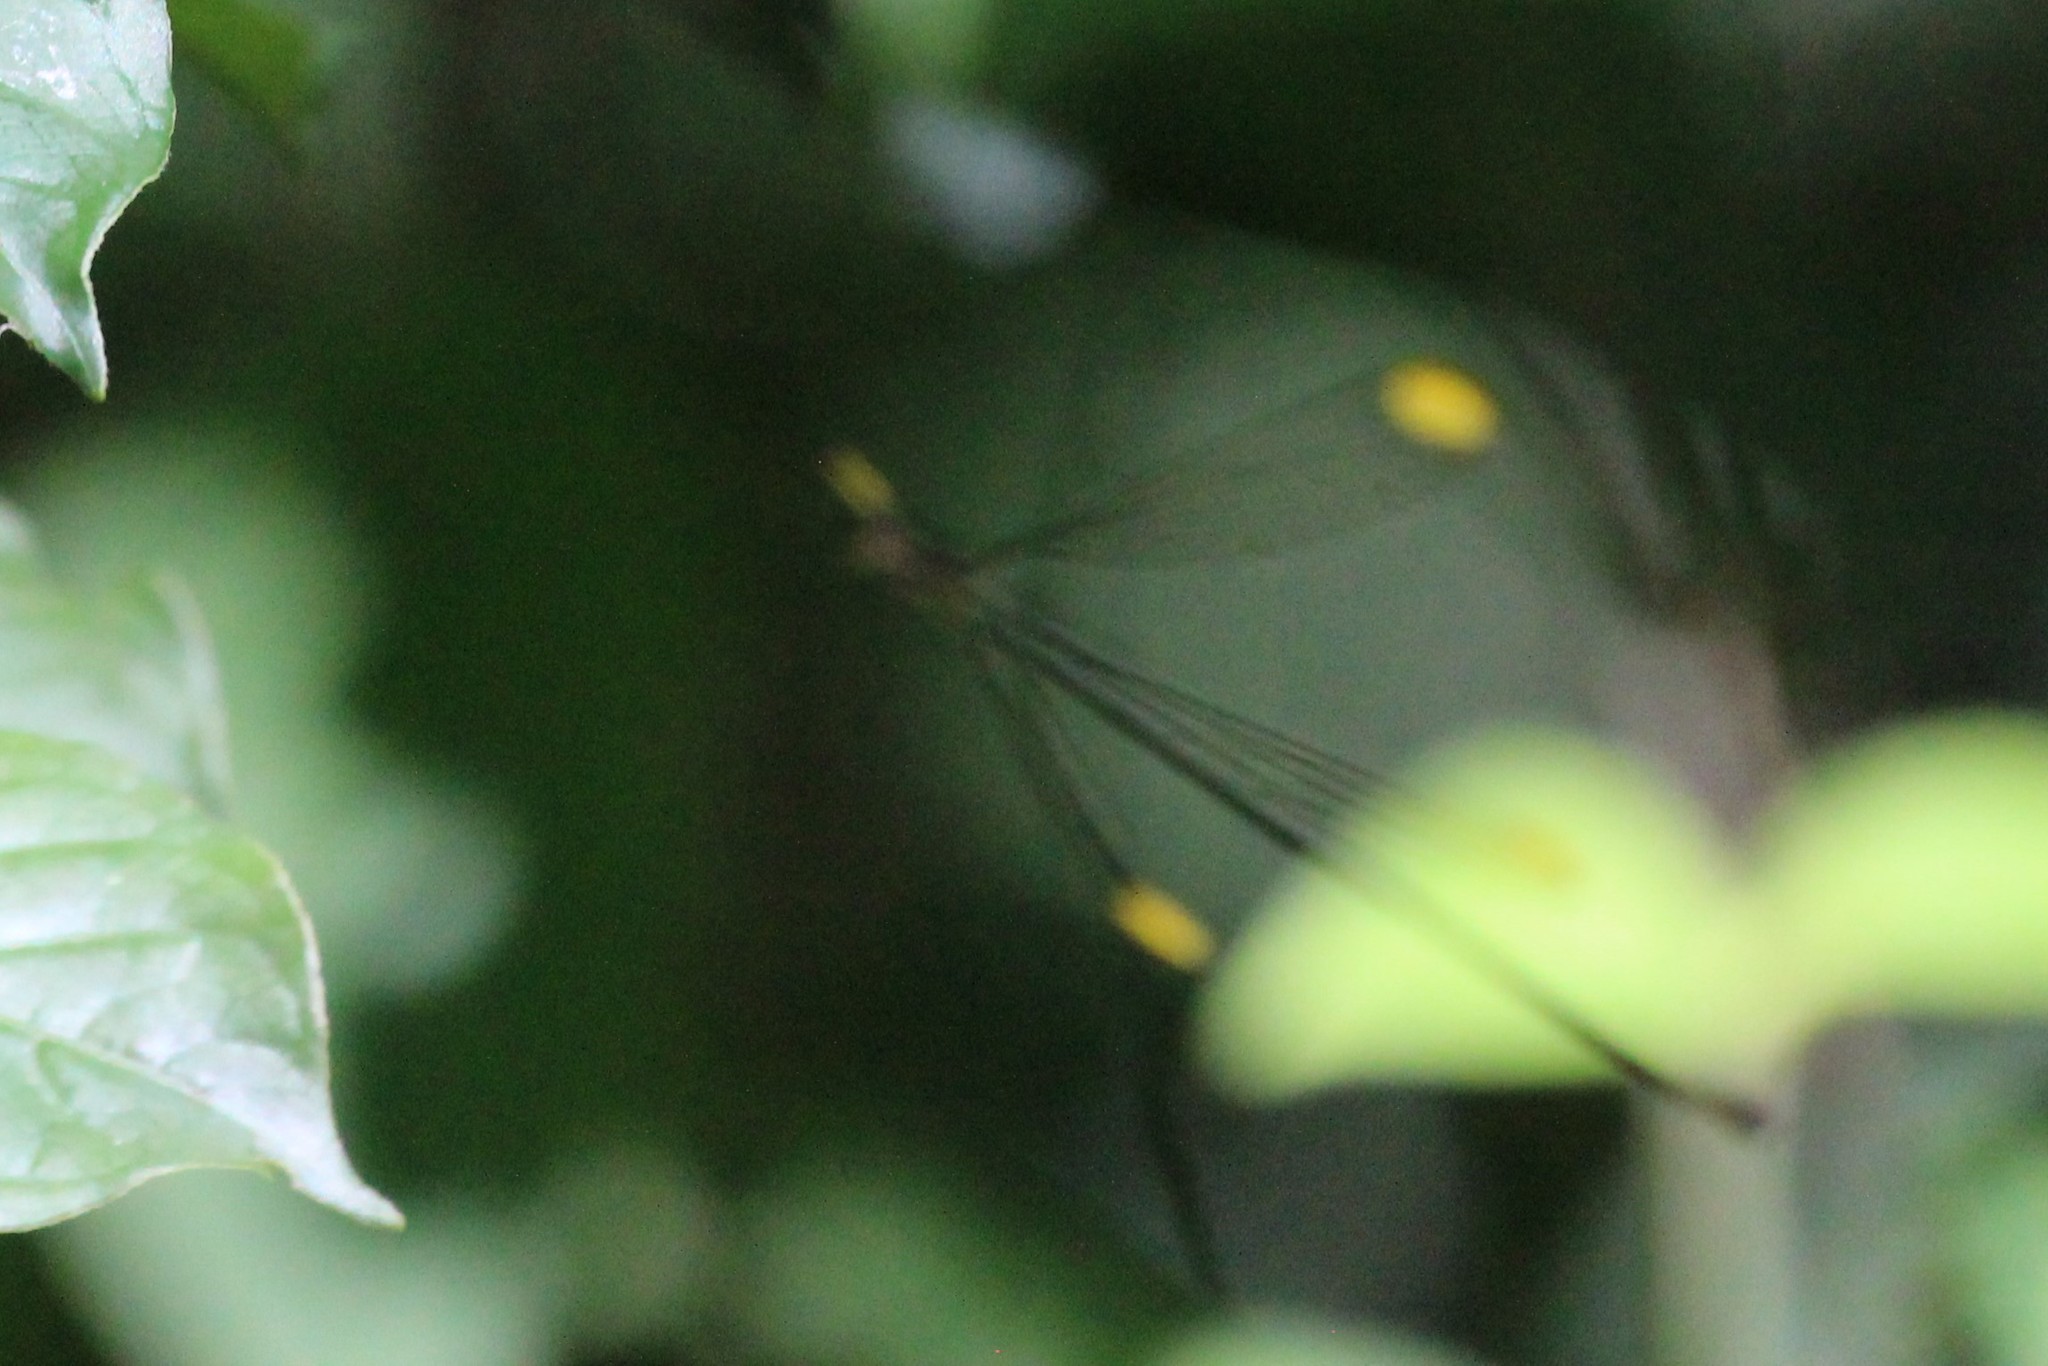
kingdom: Animalia
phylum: Arthropoda
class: Insecta
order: Odonata
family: Coenagrionidae
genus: Mecistogaster
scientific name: Mecistogaster ornata
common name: Ornate helicopter
